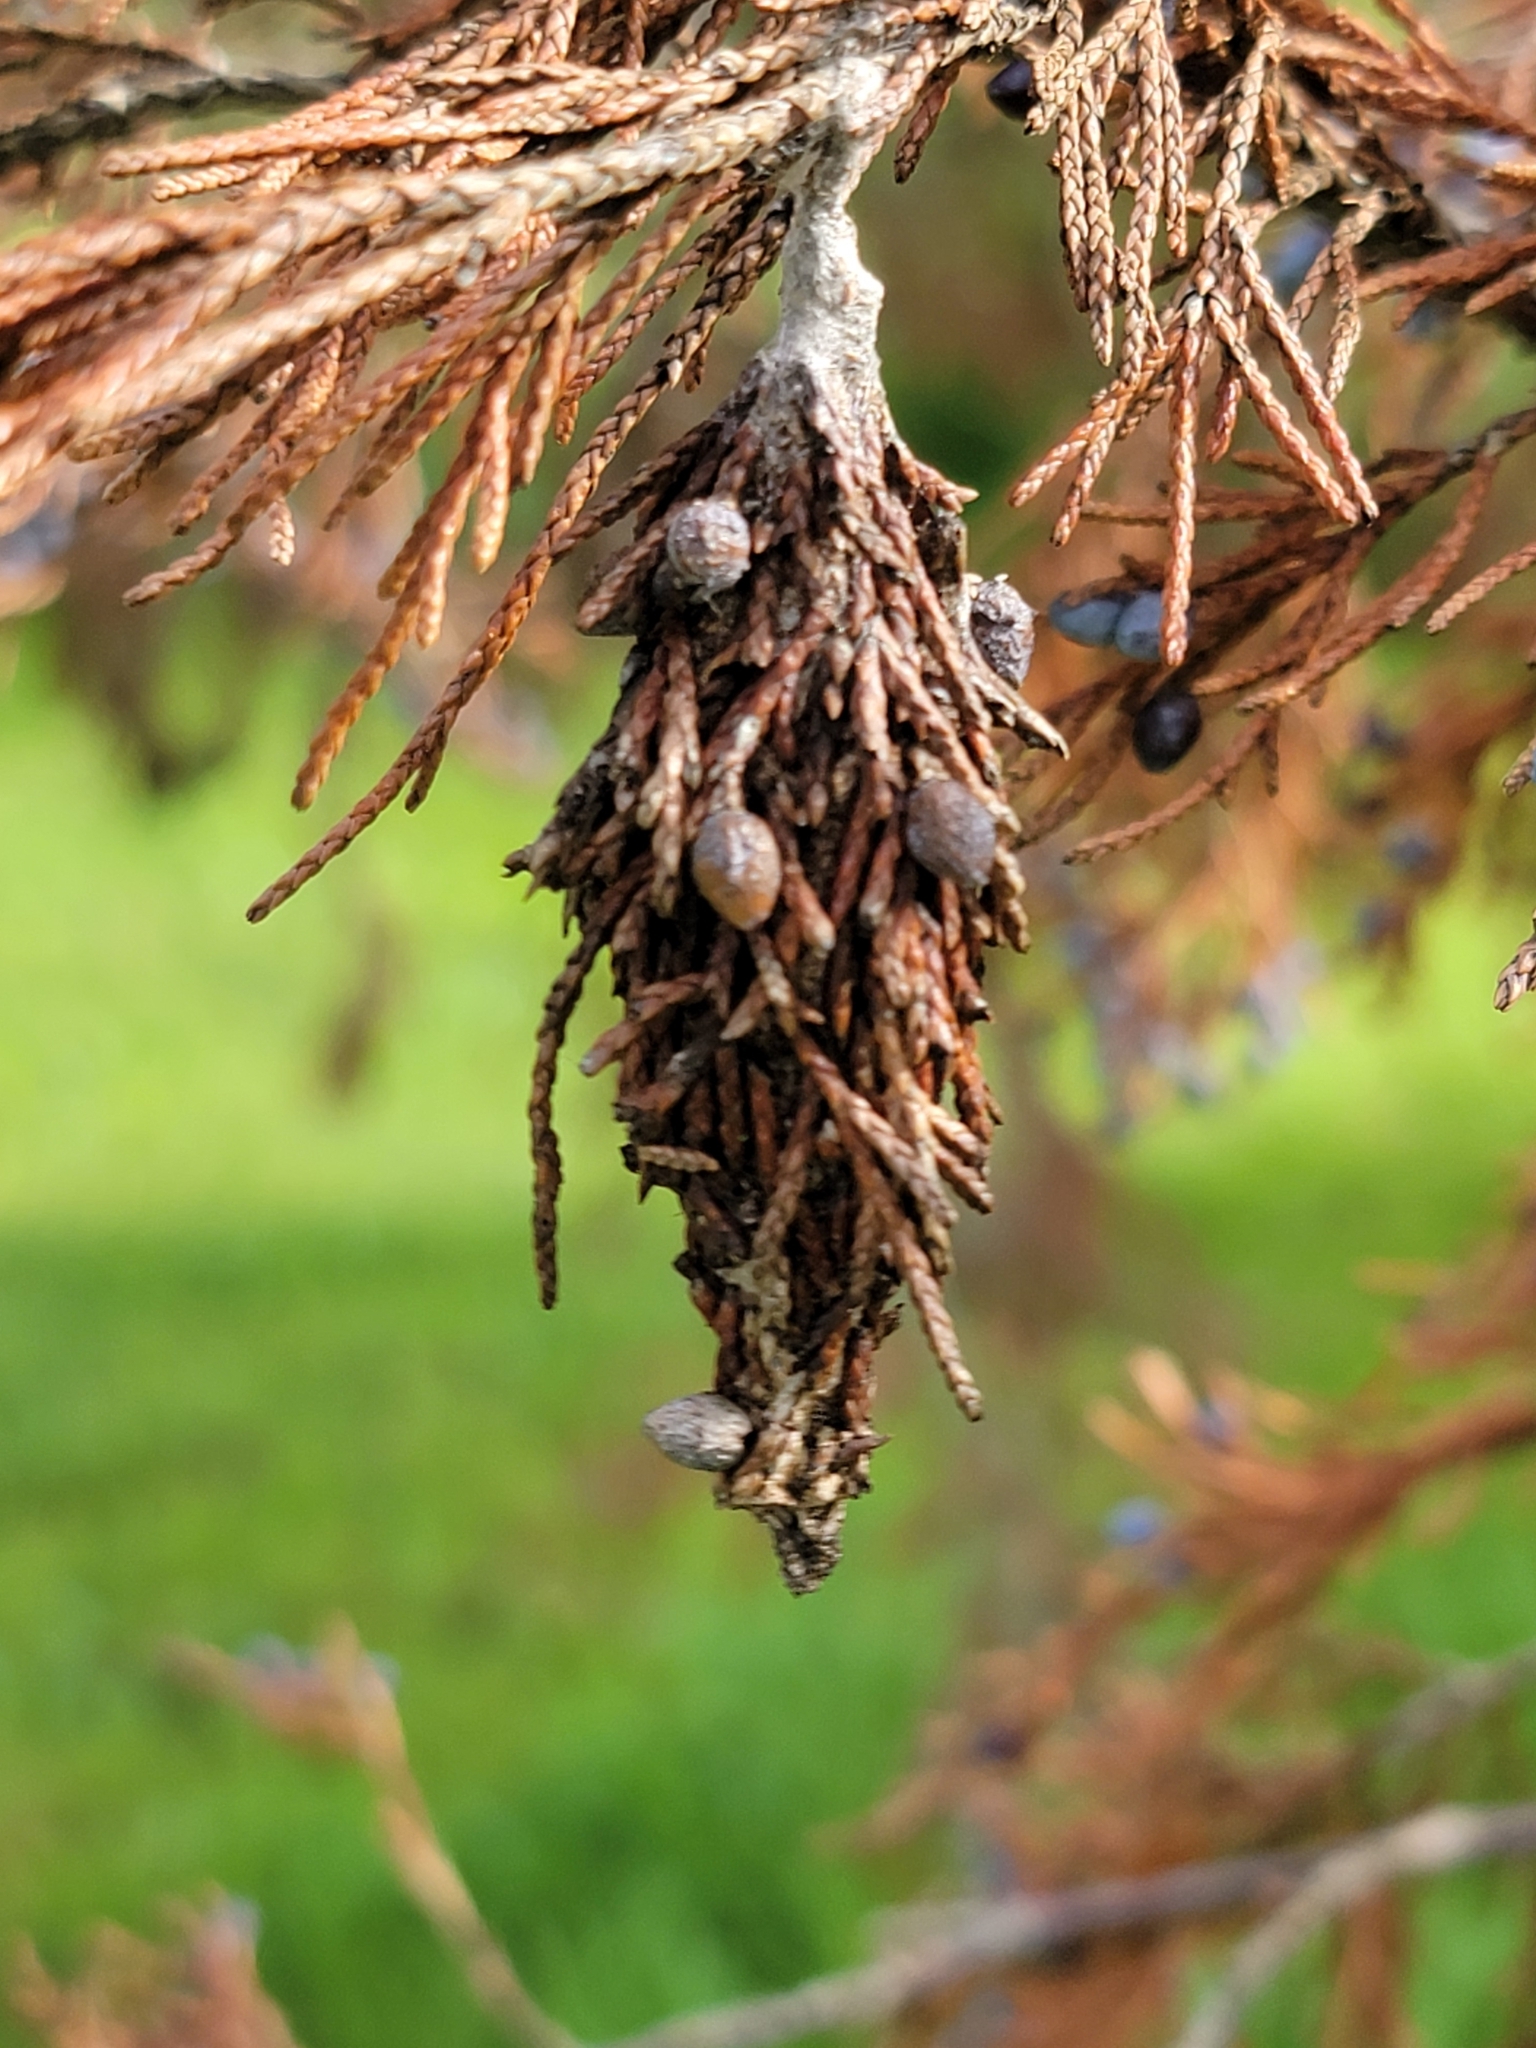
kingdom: Animalia
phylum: Arthropoda
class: Insecta
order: Lepidoptera
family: Psychidae
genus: Thyridopteryx
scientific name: Thyridopteryx ephemeraeformis
